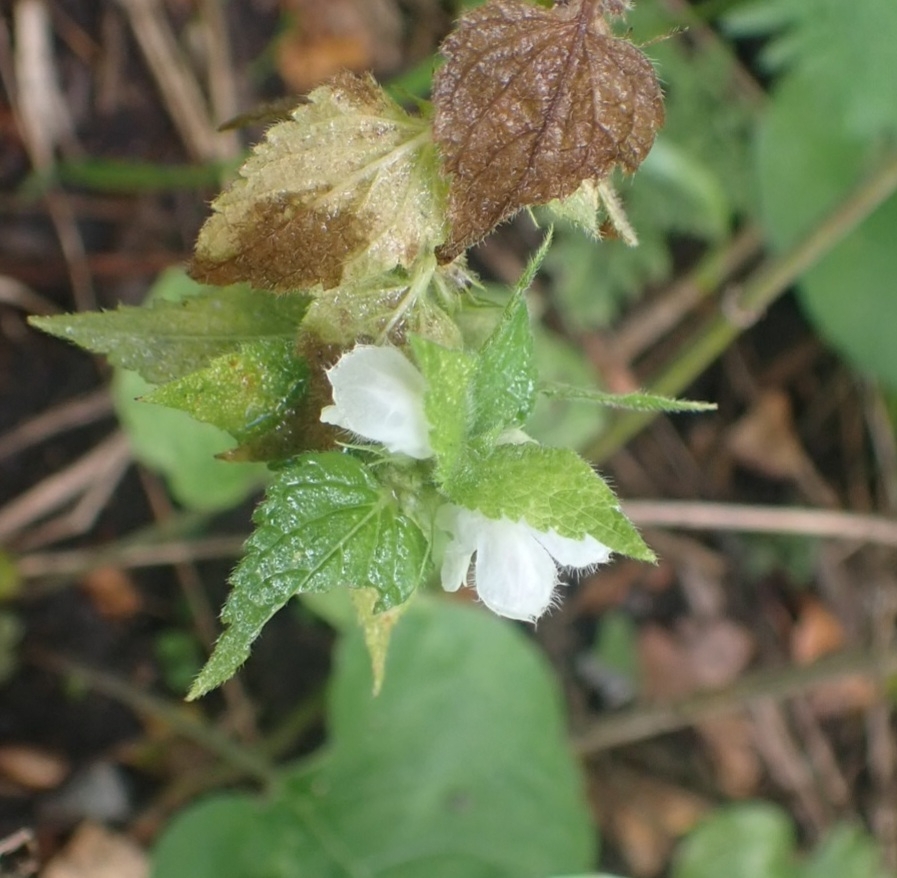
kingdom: Plantae
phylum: Tracheophyta
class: Magnoliopsida
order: Lamiales
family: Lamiaceae
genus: Lamium
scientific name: Lamium album
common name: White dead-nettle
